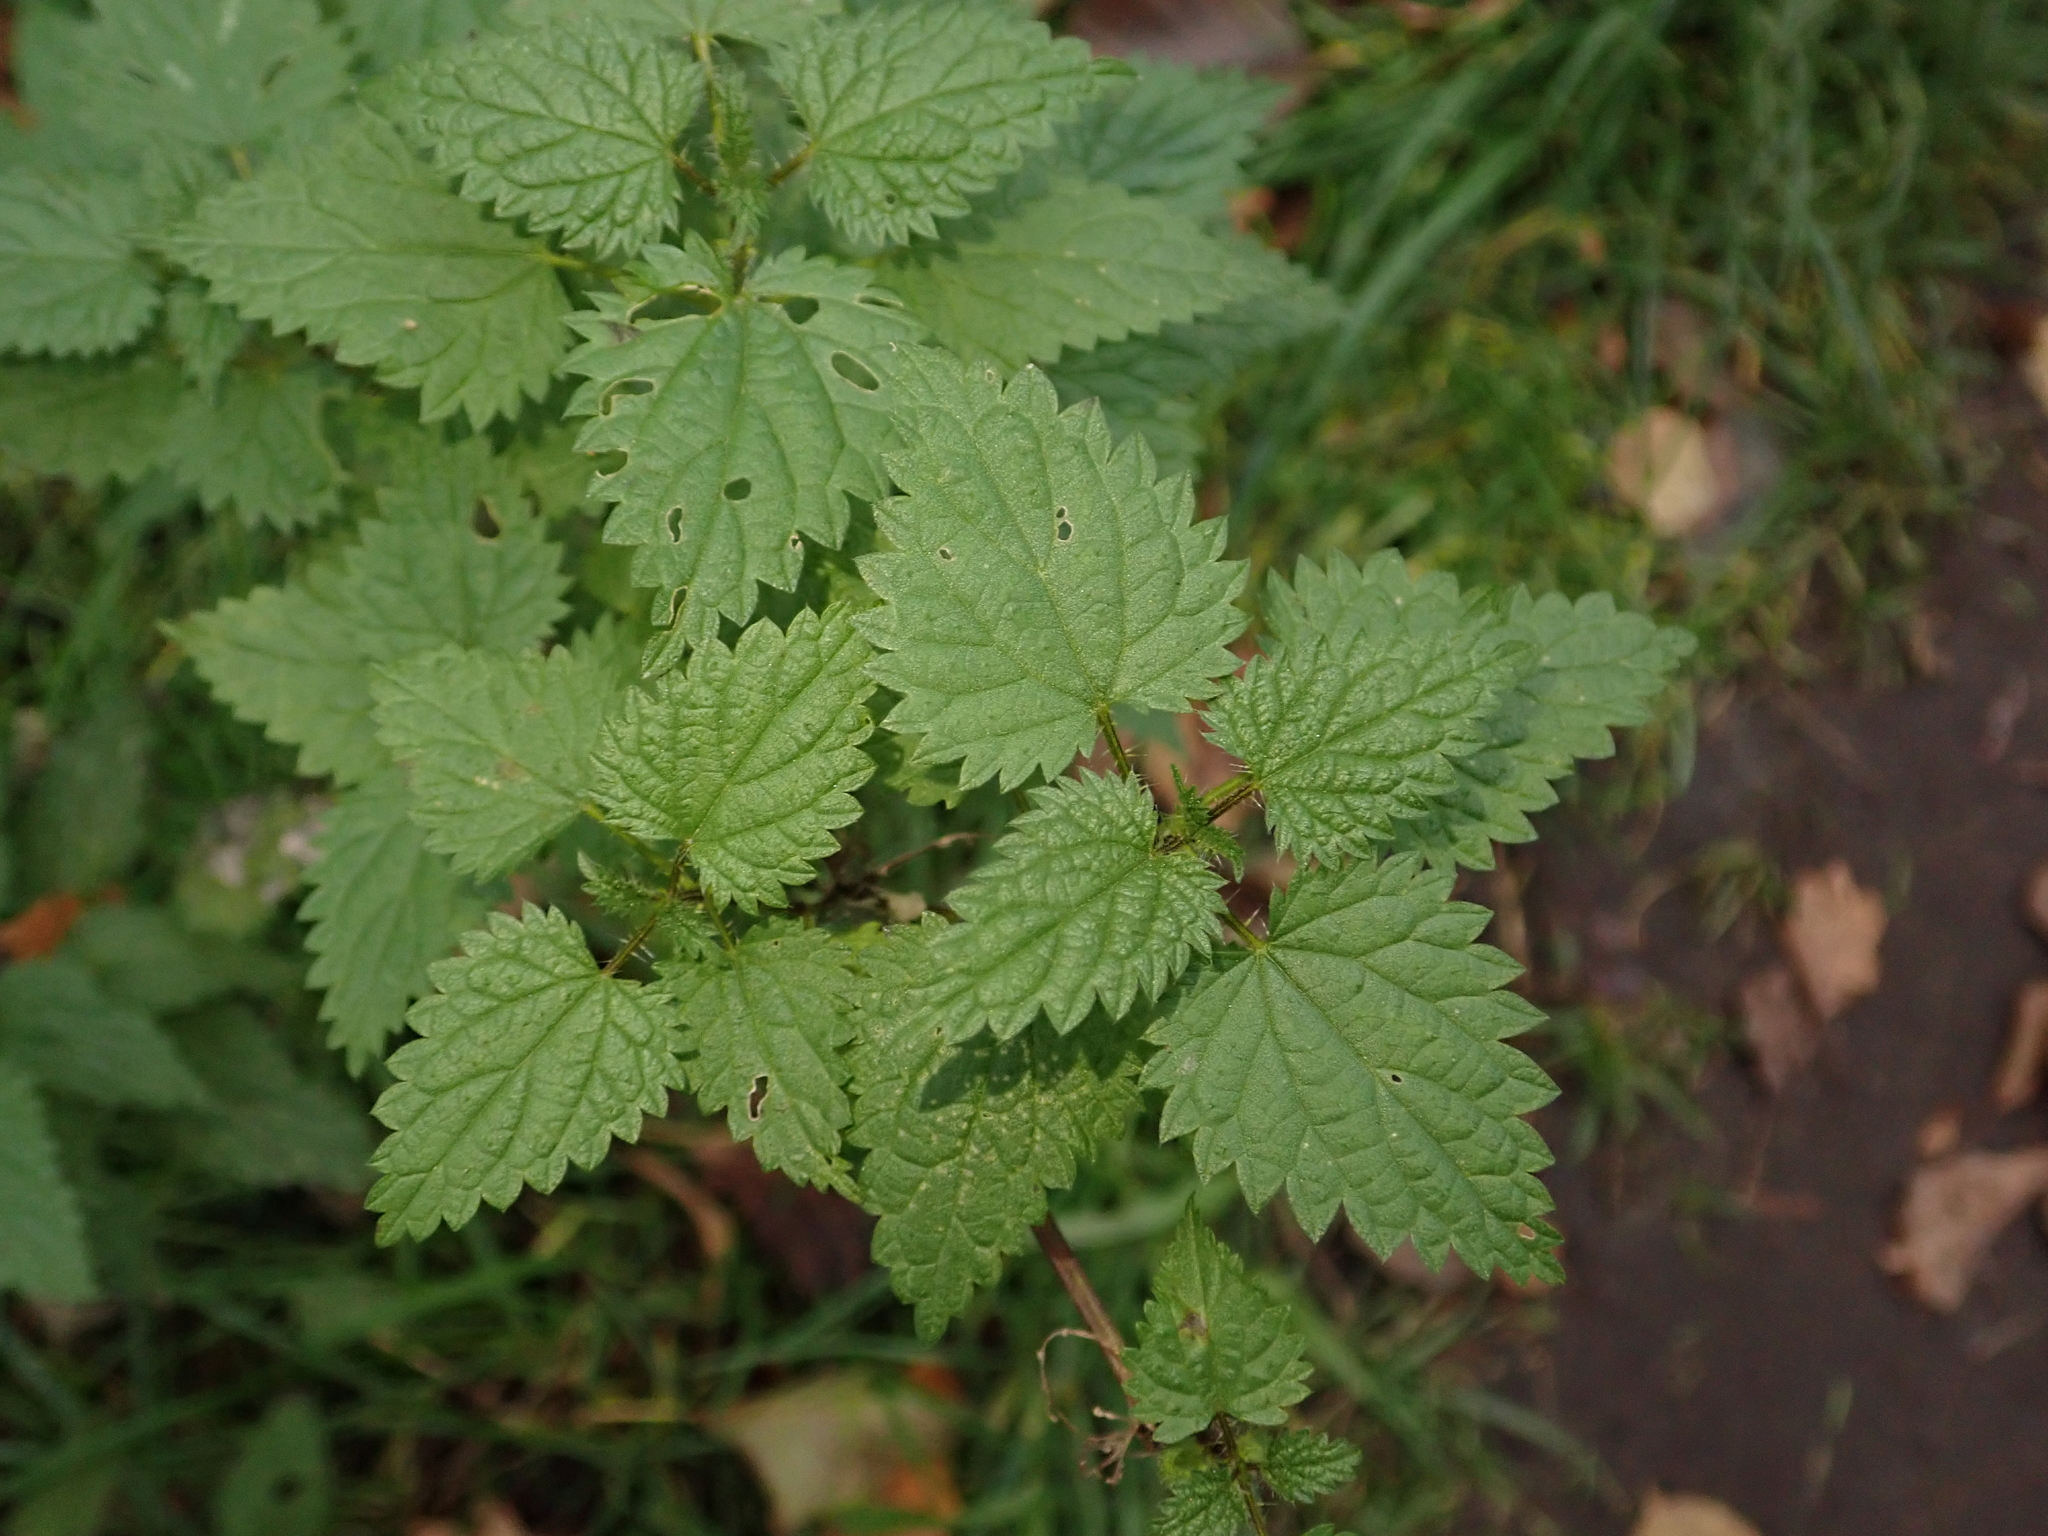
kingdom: Plantae
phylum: Tracheophyta
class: Magnoliopsida
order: Rosales
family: Urticaceae
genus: Urtica
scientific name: Urtica dioica
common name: Common nettle
